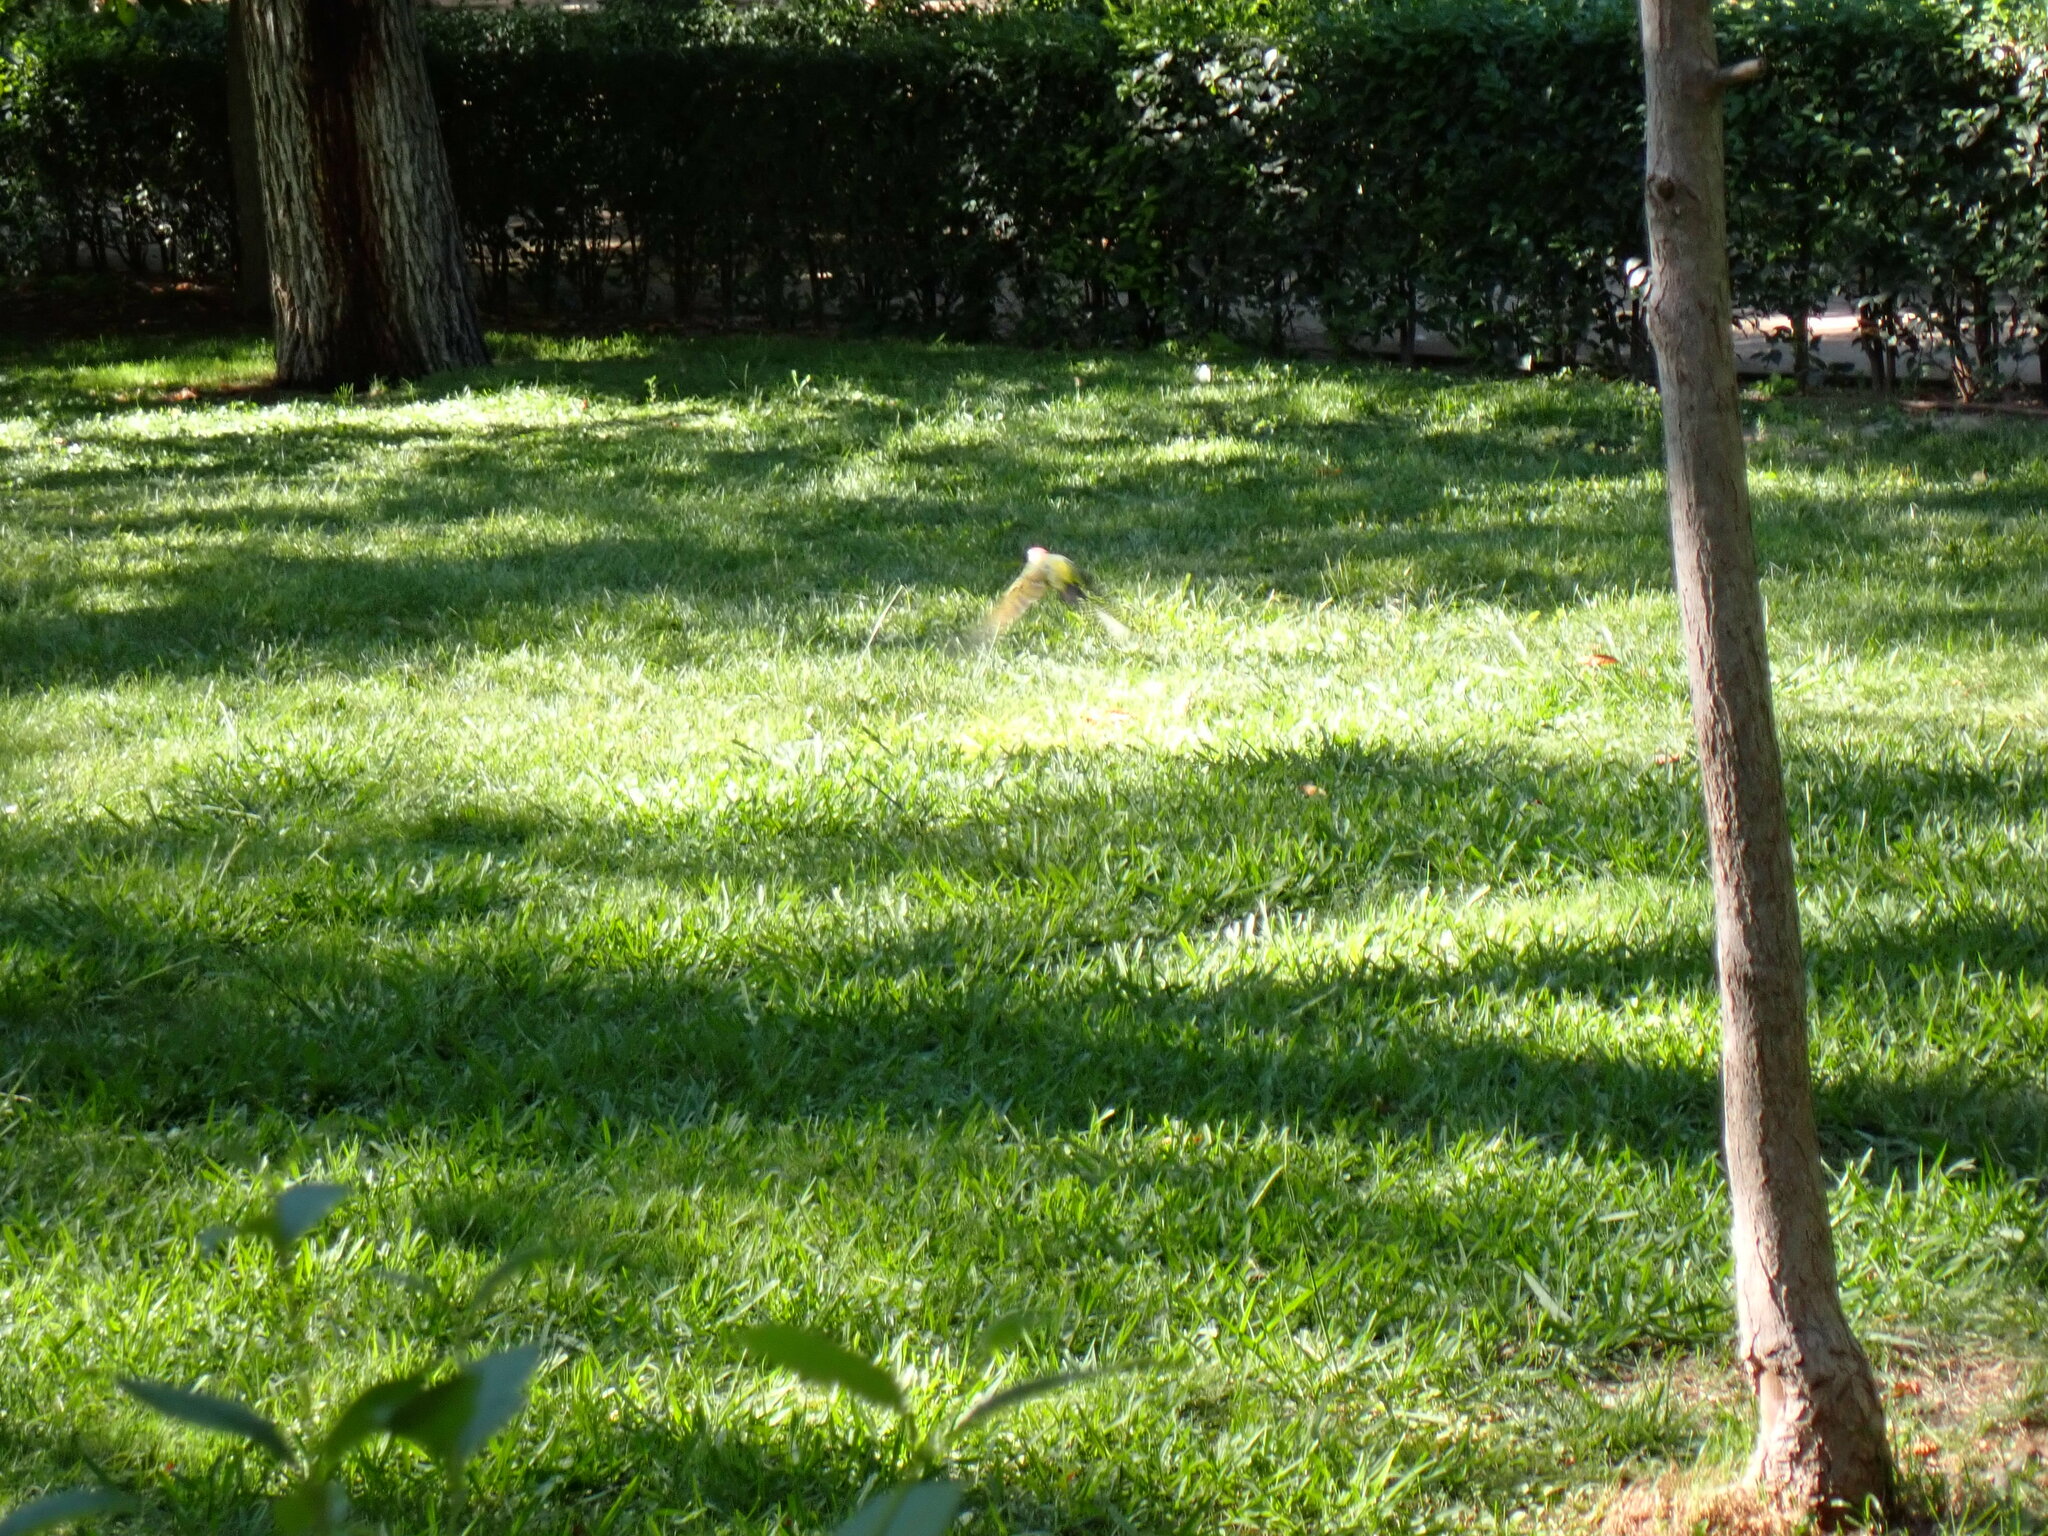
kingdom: Animalia
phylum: Chordata
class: Aves
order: Piciformes
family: Picidae
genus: Picus
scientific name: Picus sharpei
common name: Iberian green woodpecker
